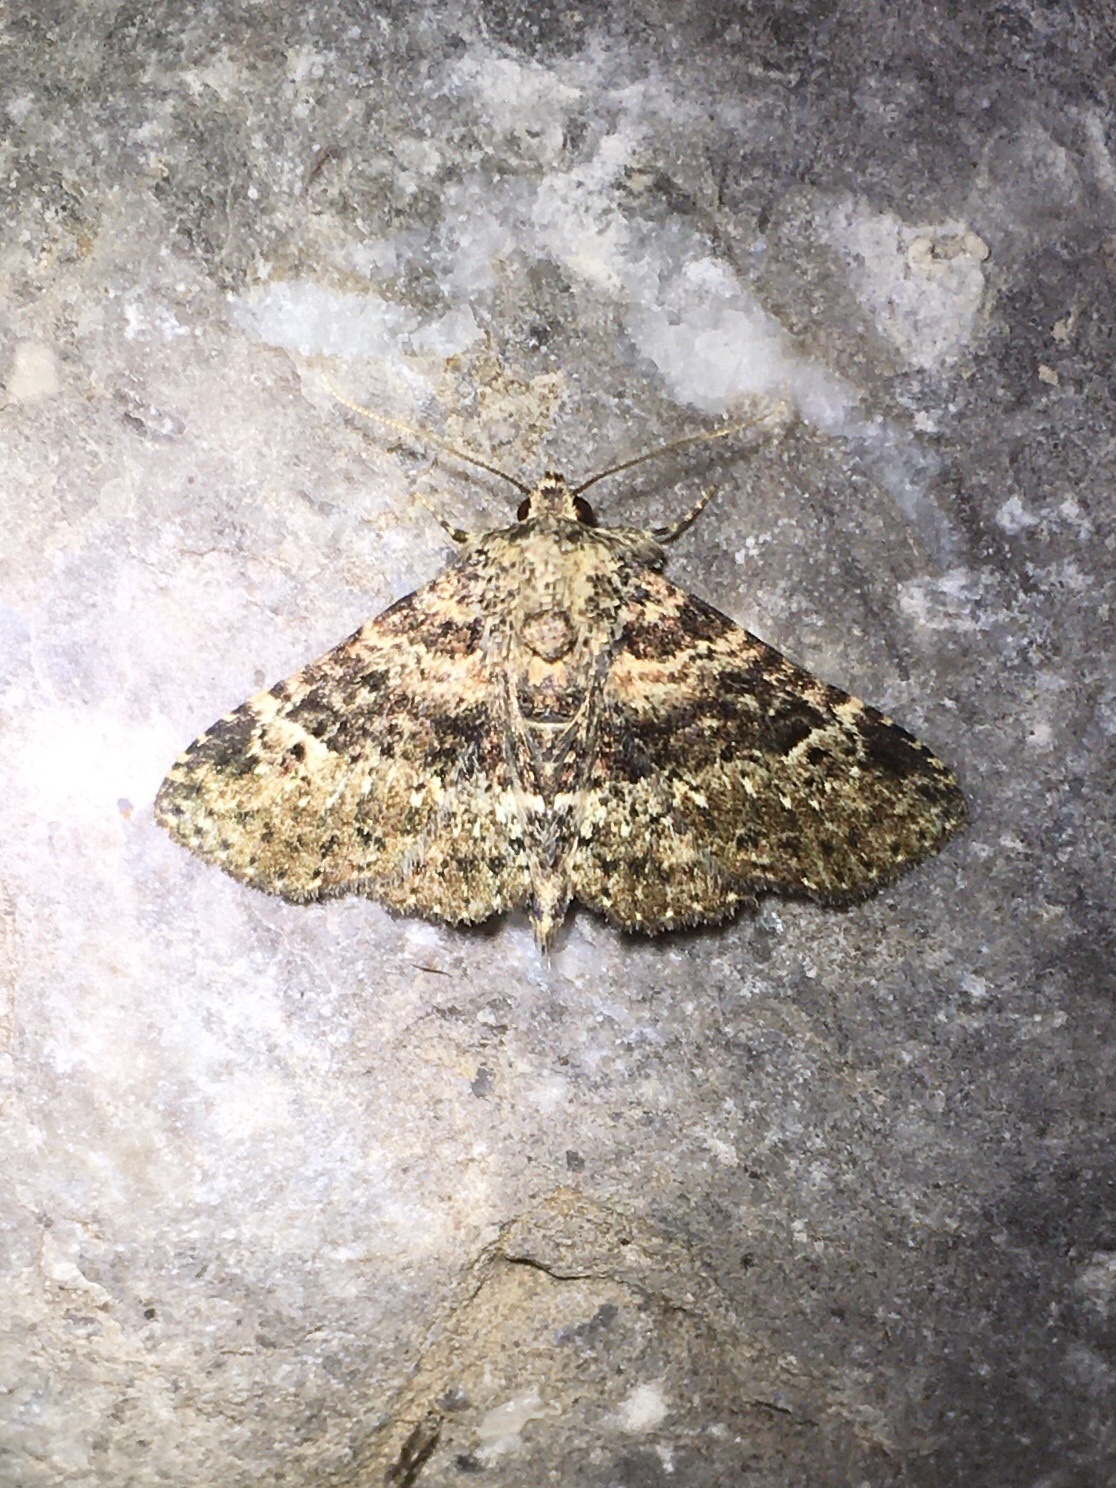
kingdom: Animalia
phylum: Arthropoda
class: Insecta
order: Lepidoptera
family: Erebidae
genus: Metalectra
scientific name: Metalectra discalis
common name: Common fungus moth
